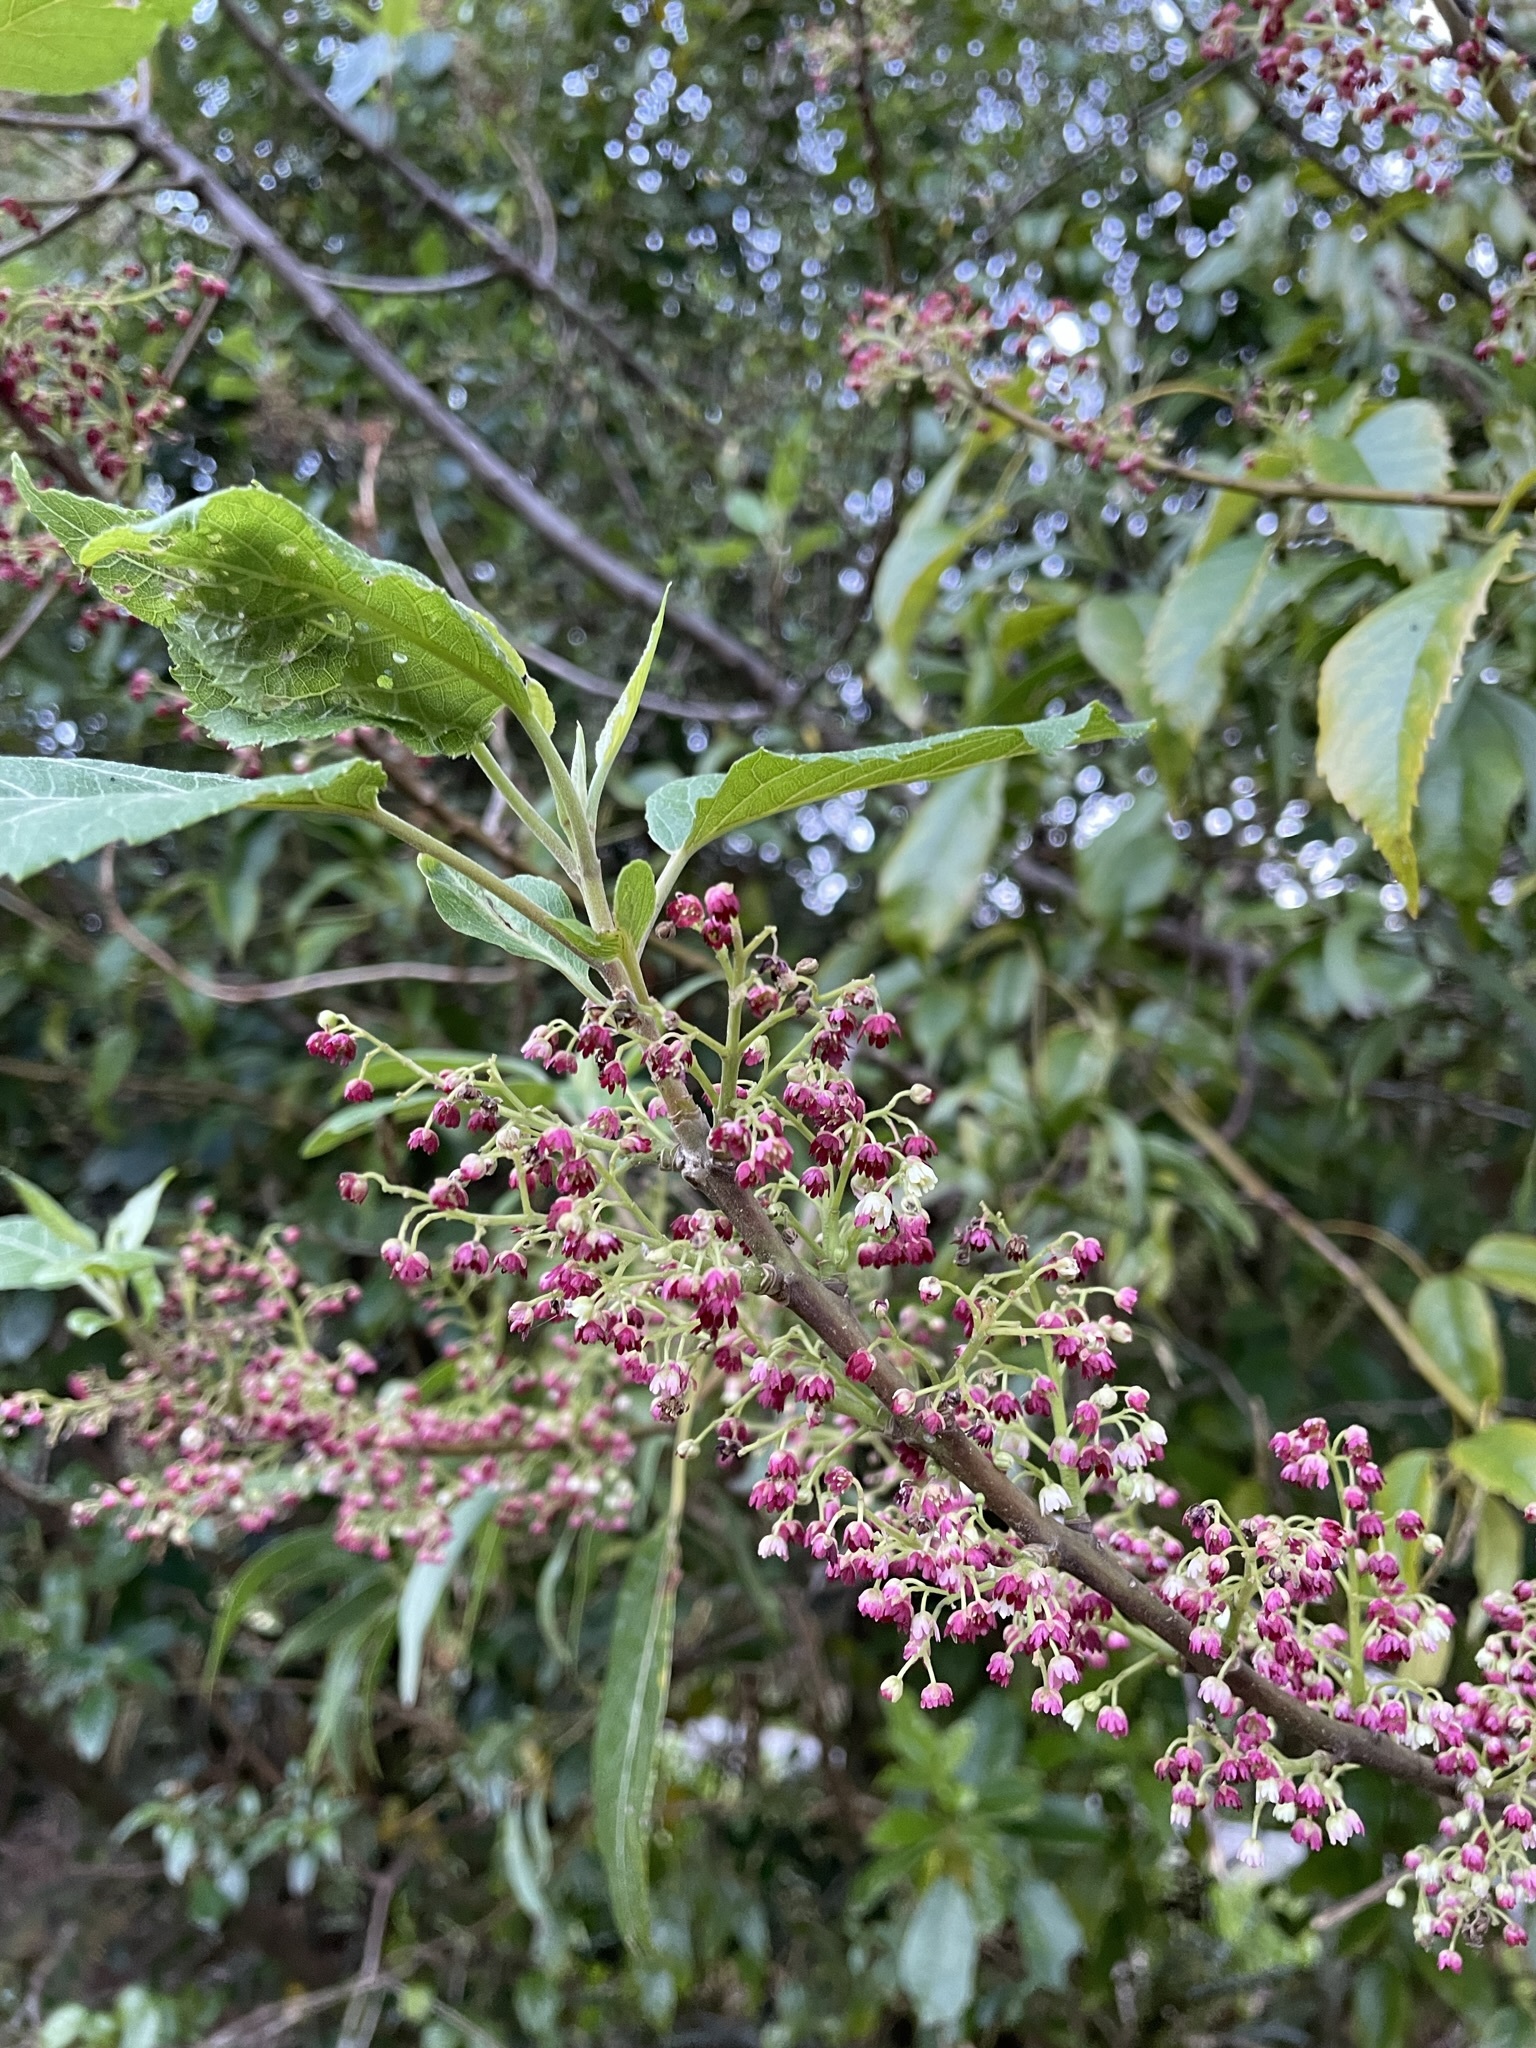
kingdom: Plantae
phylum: Tracheophyta
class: Magnoliopsida
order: Oxalidales
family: Elaeocarpaceae
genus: Aristotelia
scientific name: Aristotelia serrata
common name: New zealand wineberry
